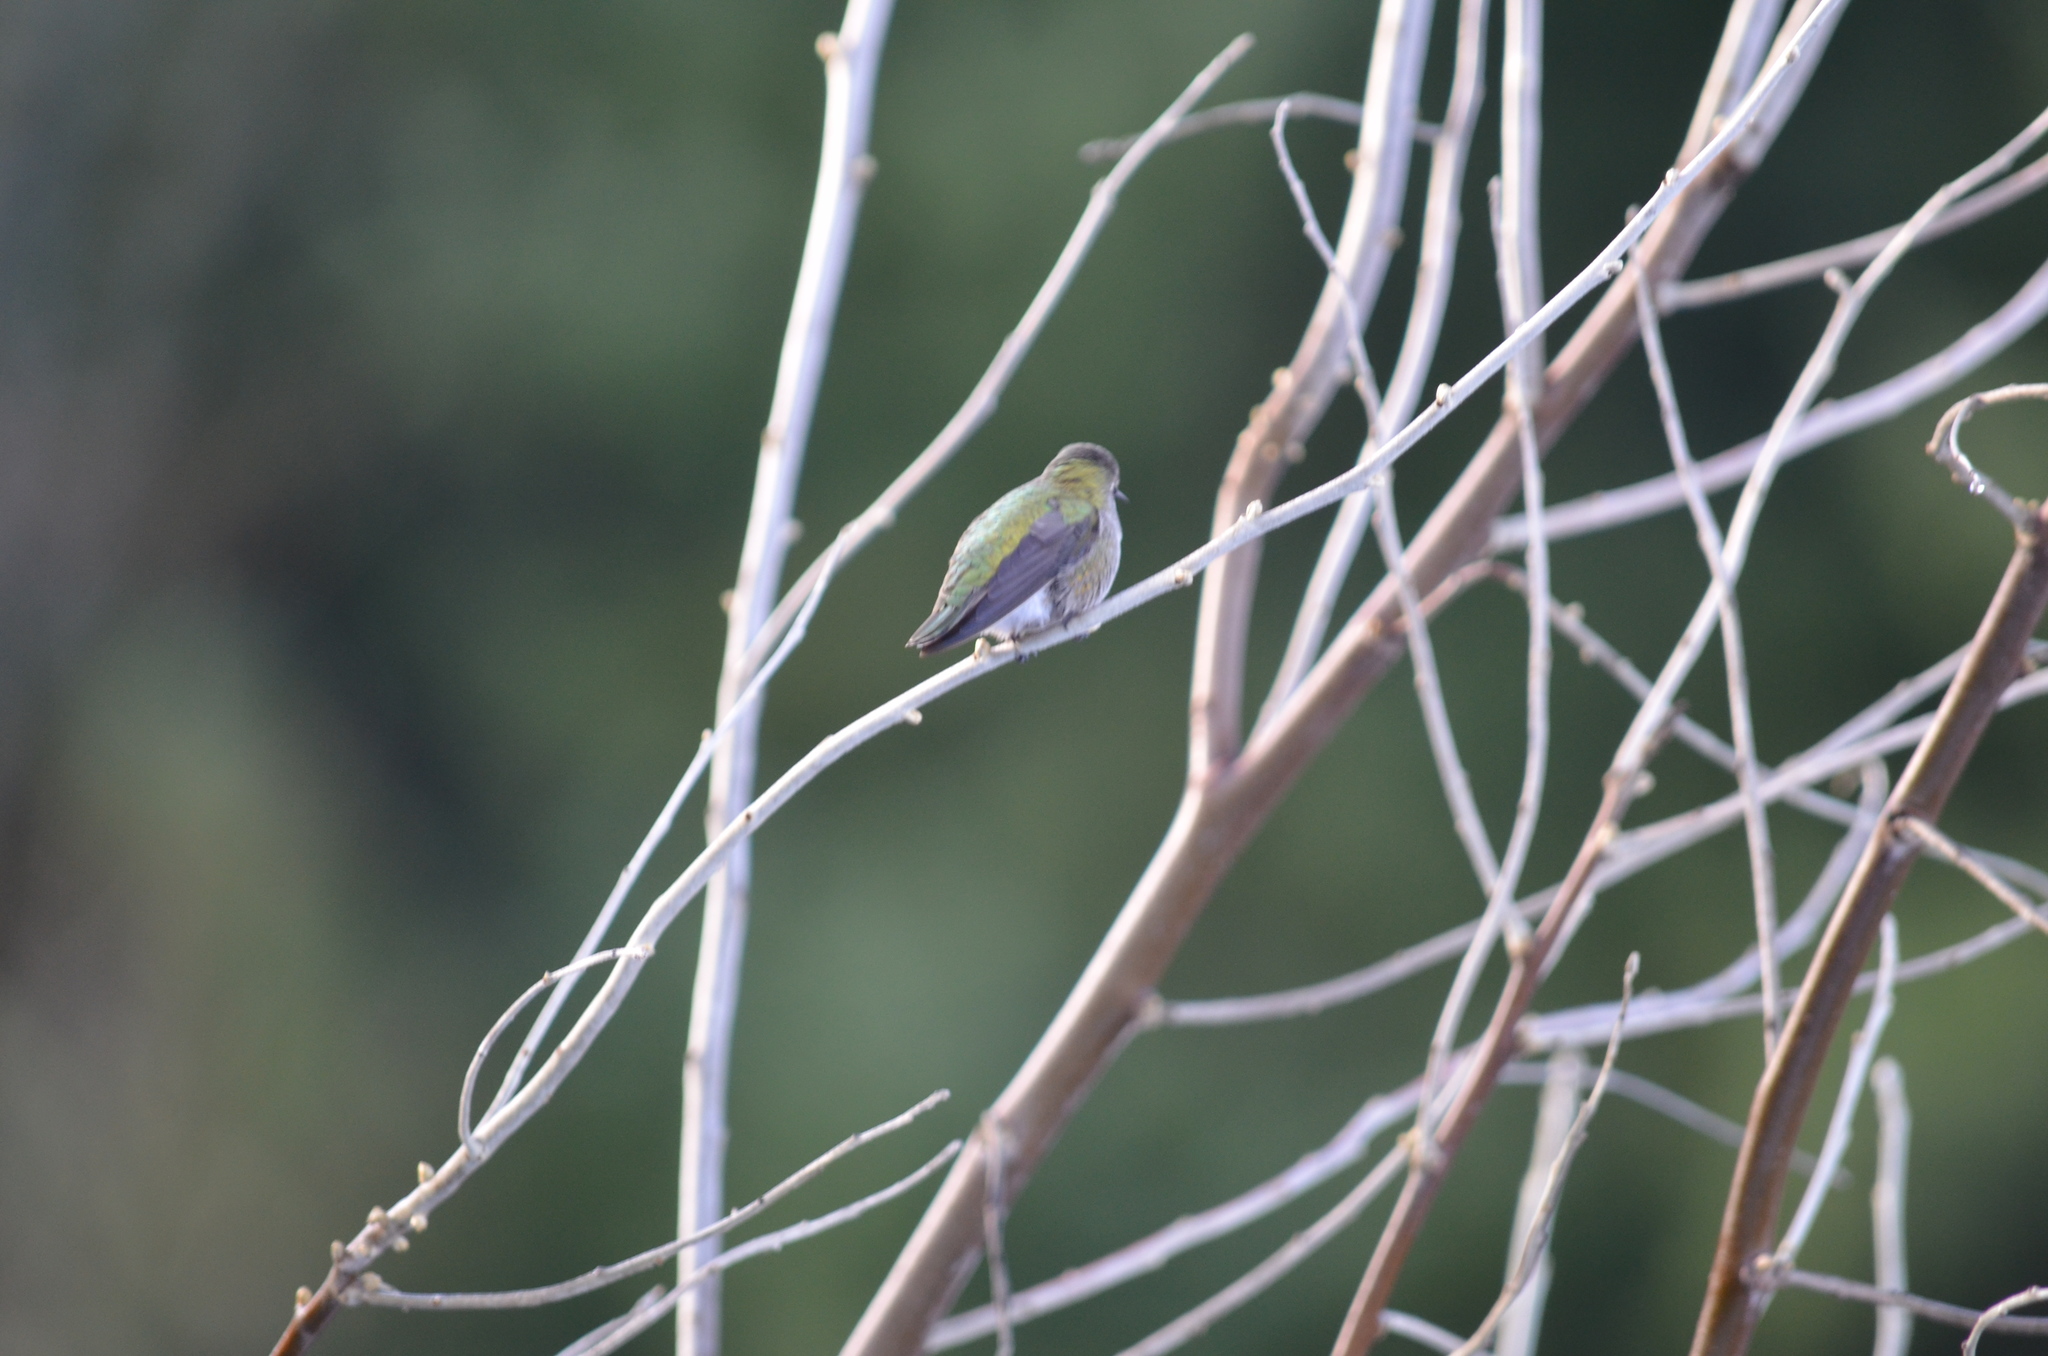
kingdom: Animalia
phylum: Chordata
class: Aves
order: Apodiformes
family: Trochilidae
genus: Calypte
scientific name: Calypte anna
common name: Anna's hummingbird
